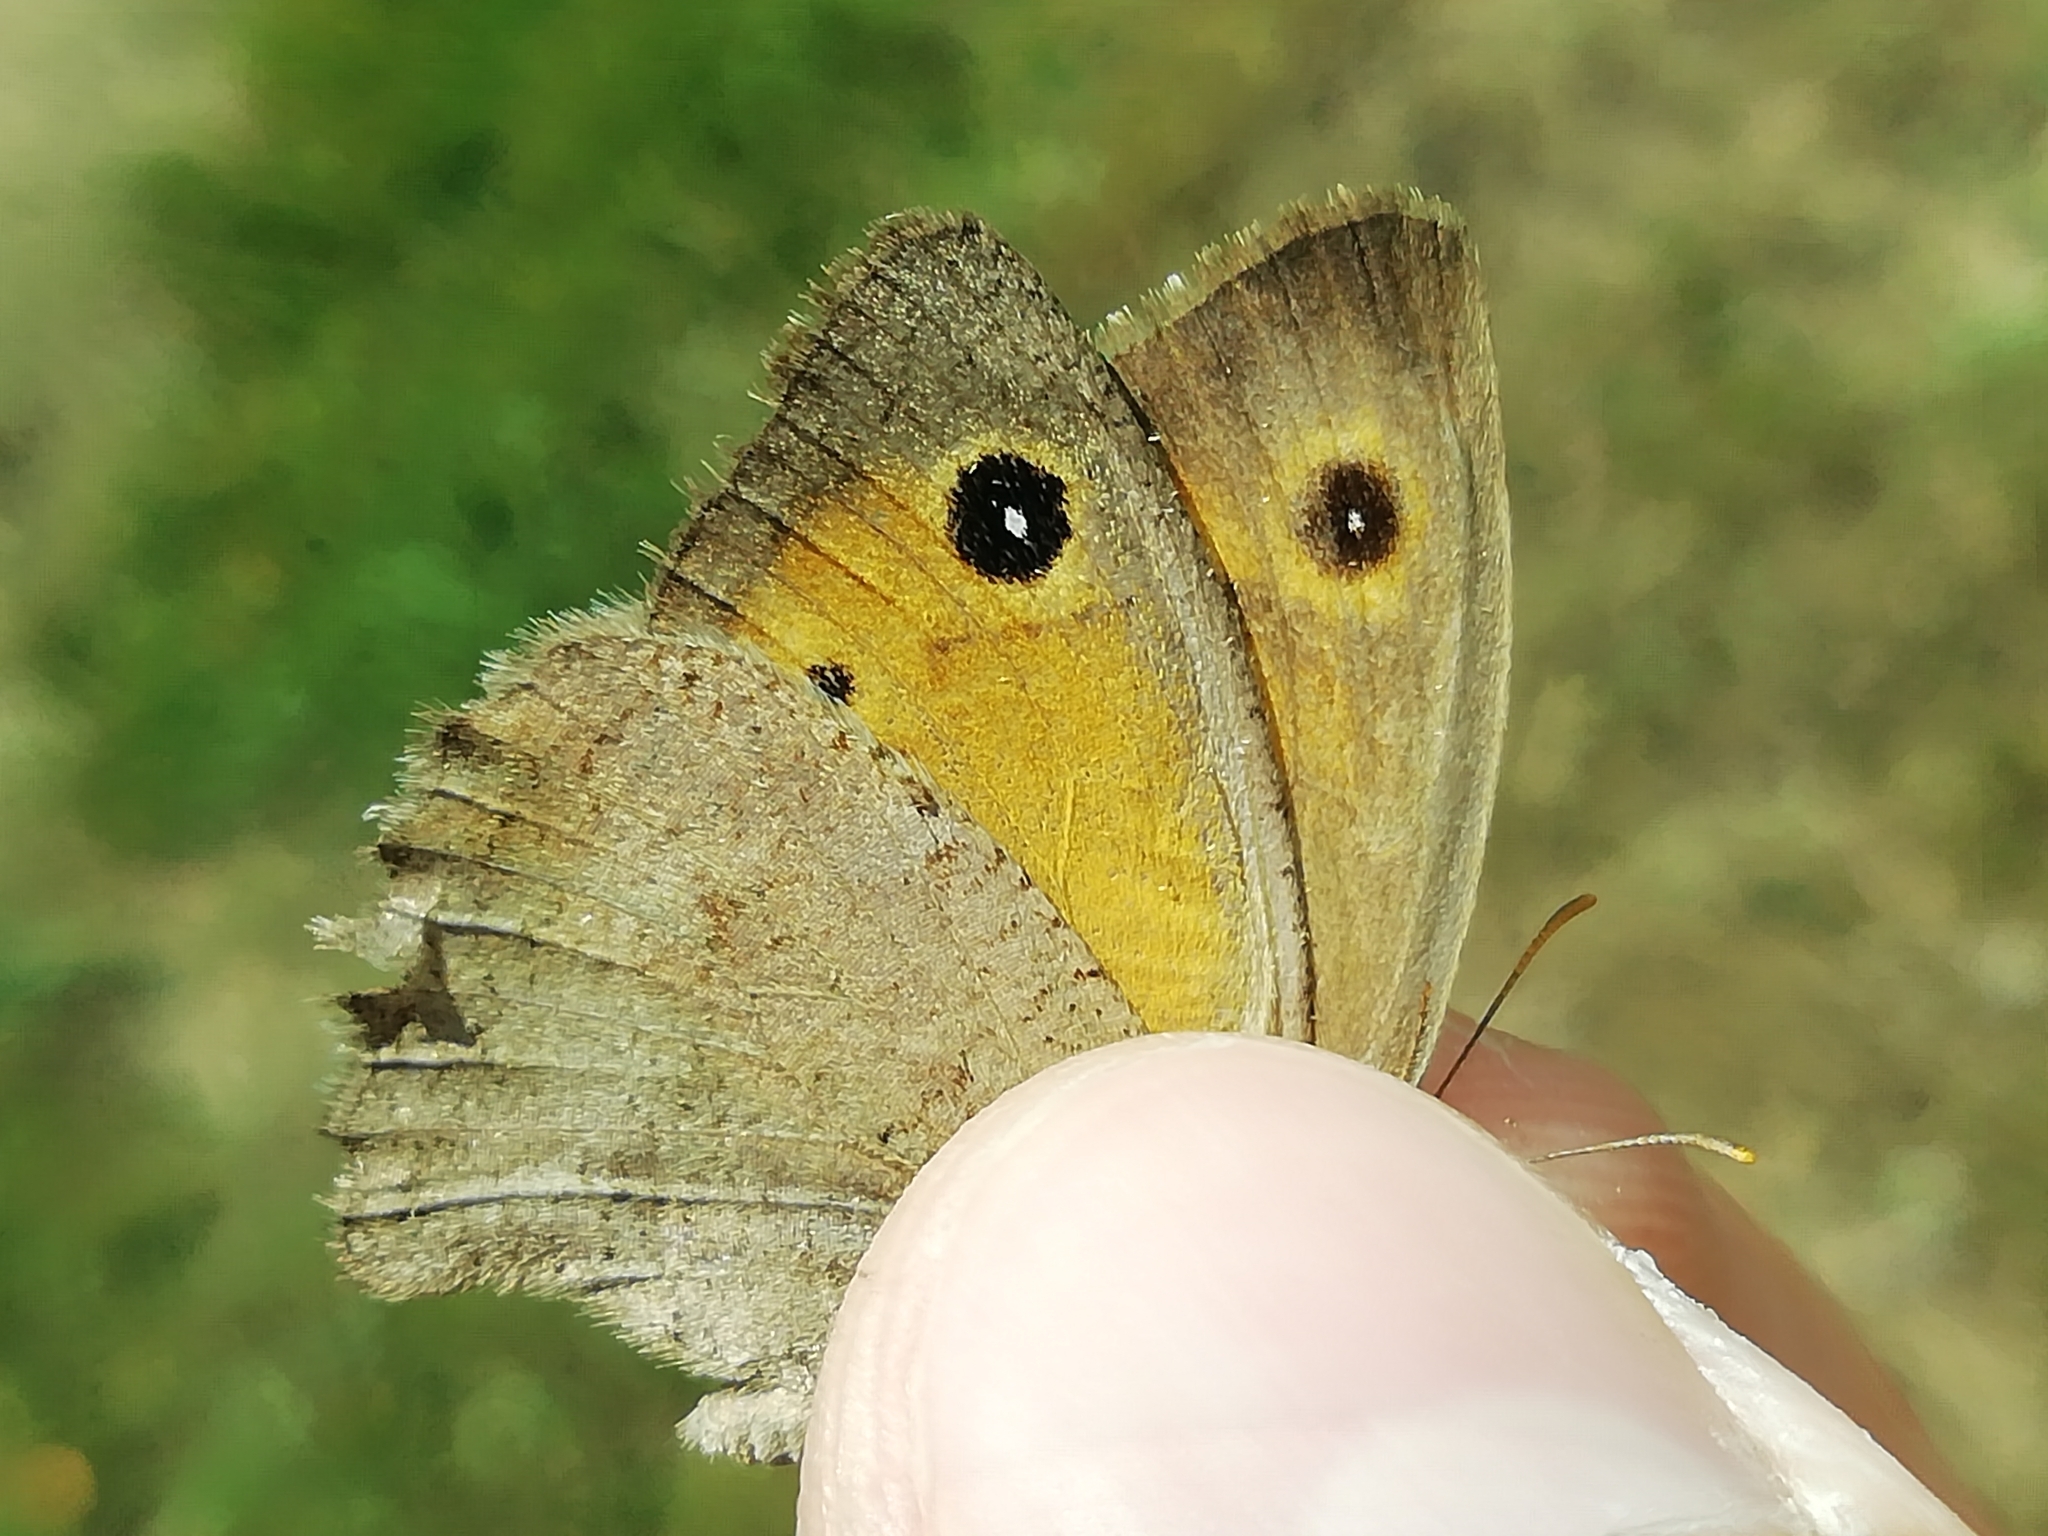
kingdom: Animalia
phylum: Arthropoda
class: Insecta
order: Lepidoptera
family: Nymphalidae
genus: Hyponephele
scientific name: Hyponephele lycaon
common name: Dusky meadow brown
